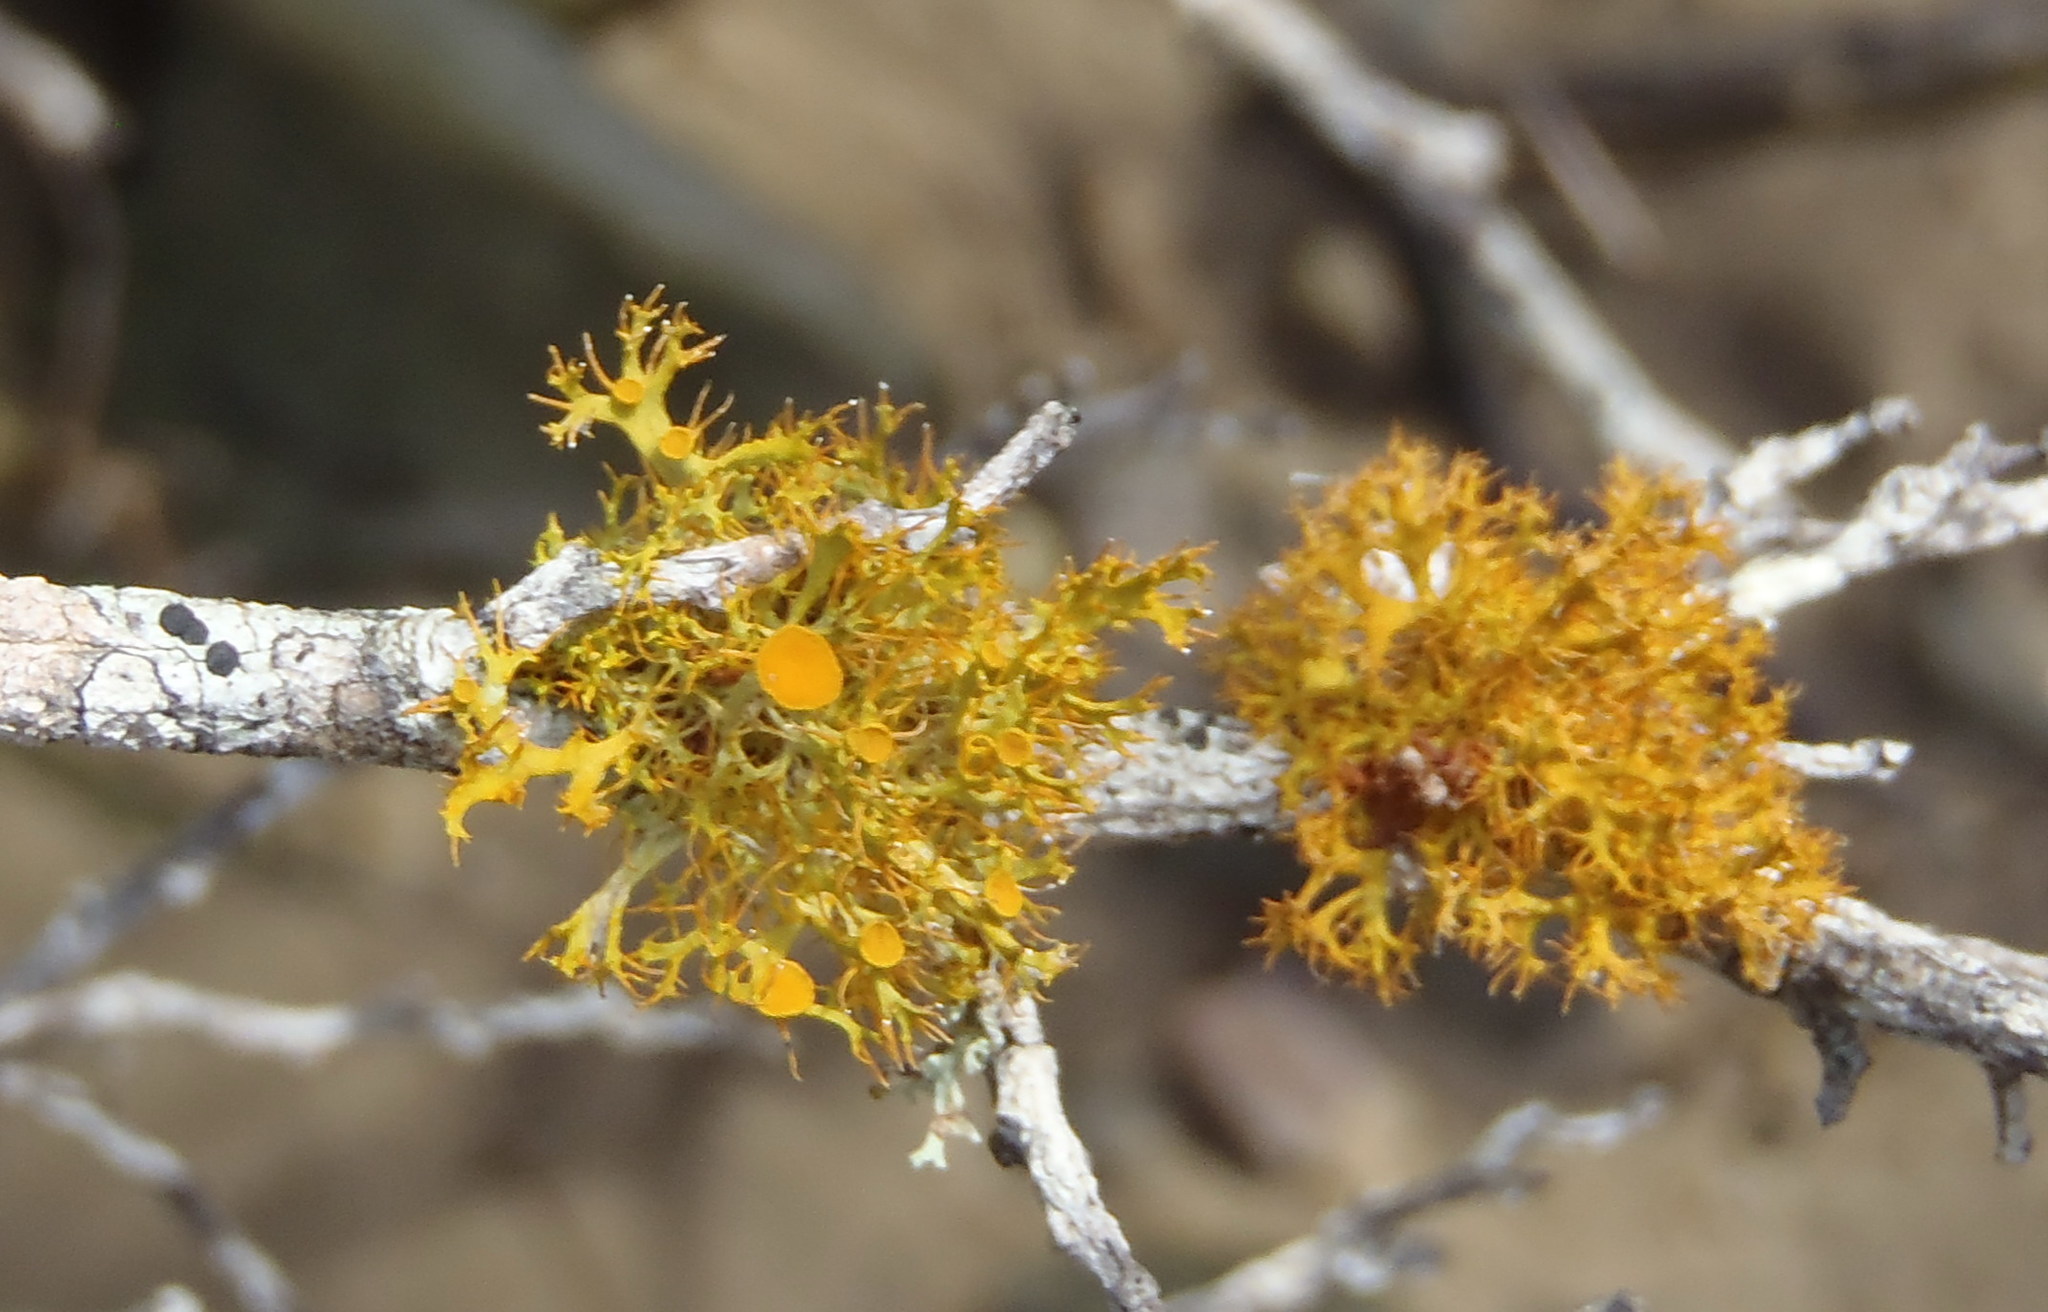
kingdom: Fungi
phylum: Ascomycota
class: Lecanoromycetes
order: Teloschistales
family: Teloschistaceae
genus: Teloschistes
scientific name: Teloschistes pulvinaris
